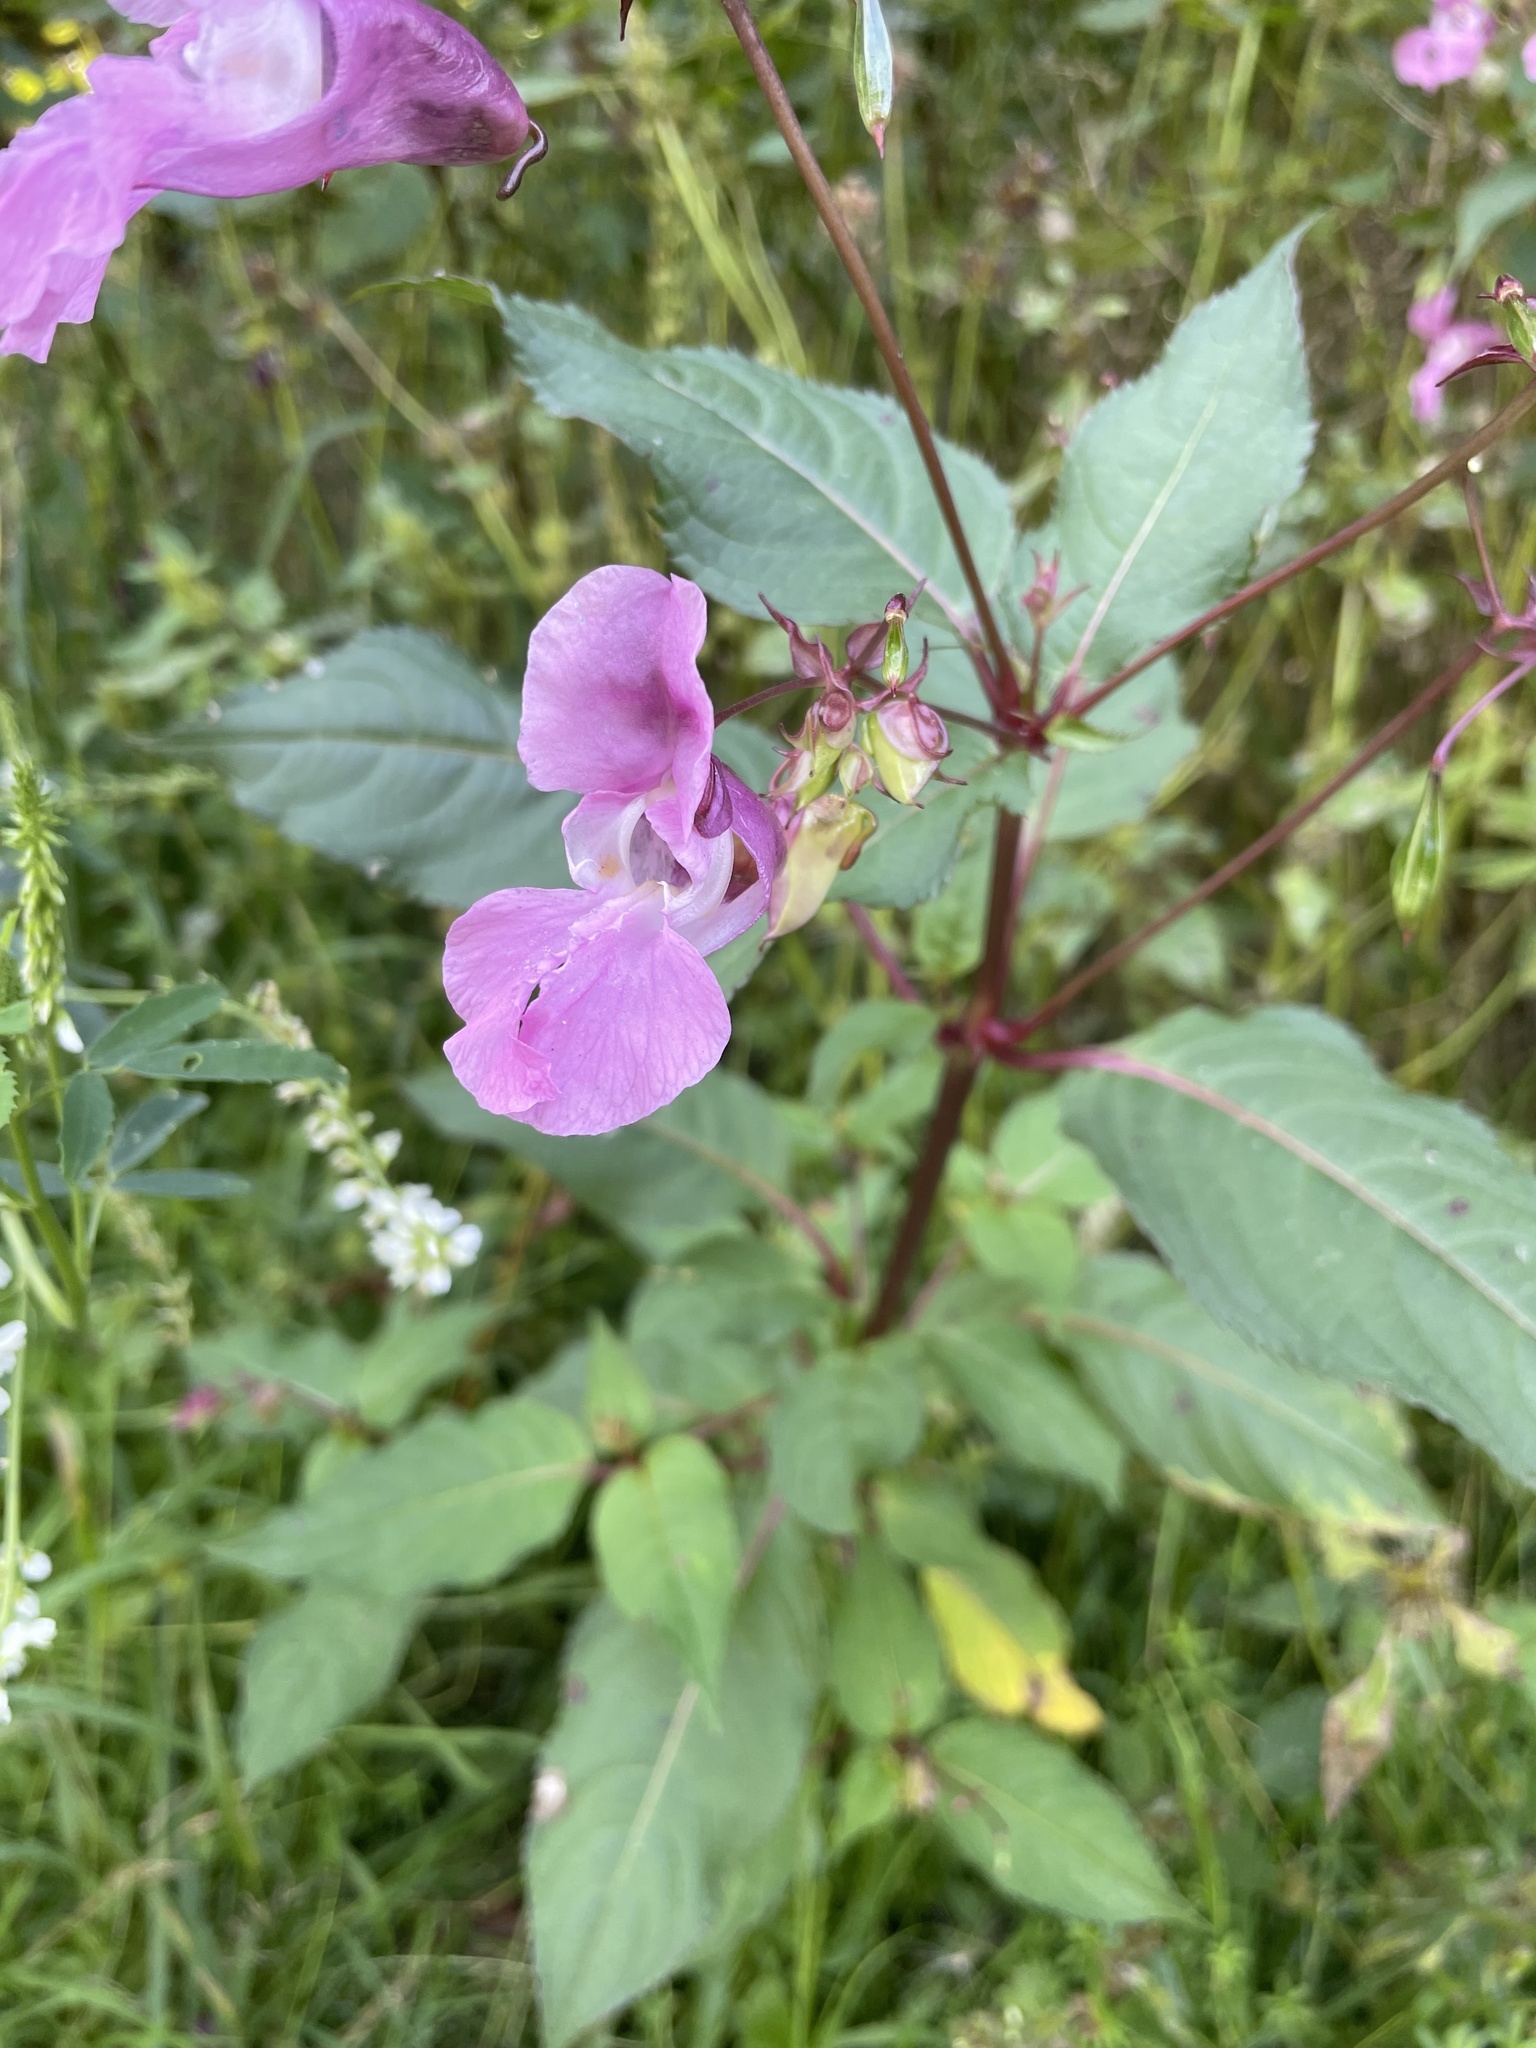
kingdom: Plantae
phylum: Tracheophyta
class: Magnoliopsida
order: Ericales
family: Balsaminaceae
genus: Impatiens
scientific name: Impatiens glandulifera
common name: Himalayan balsam
